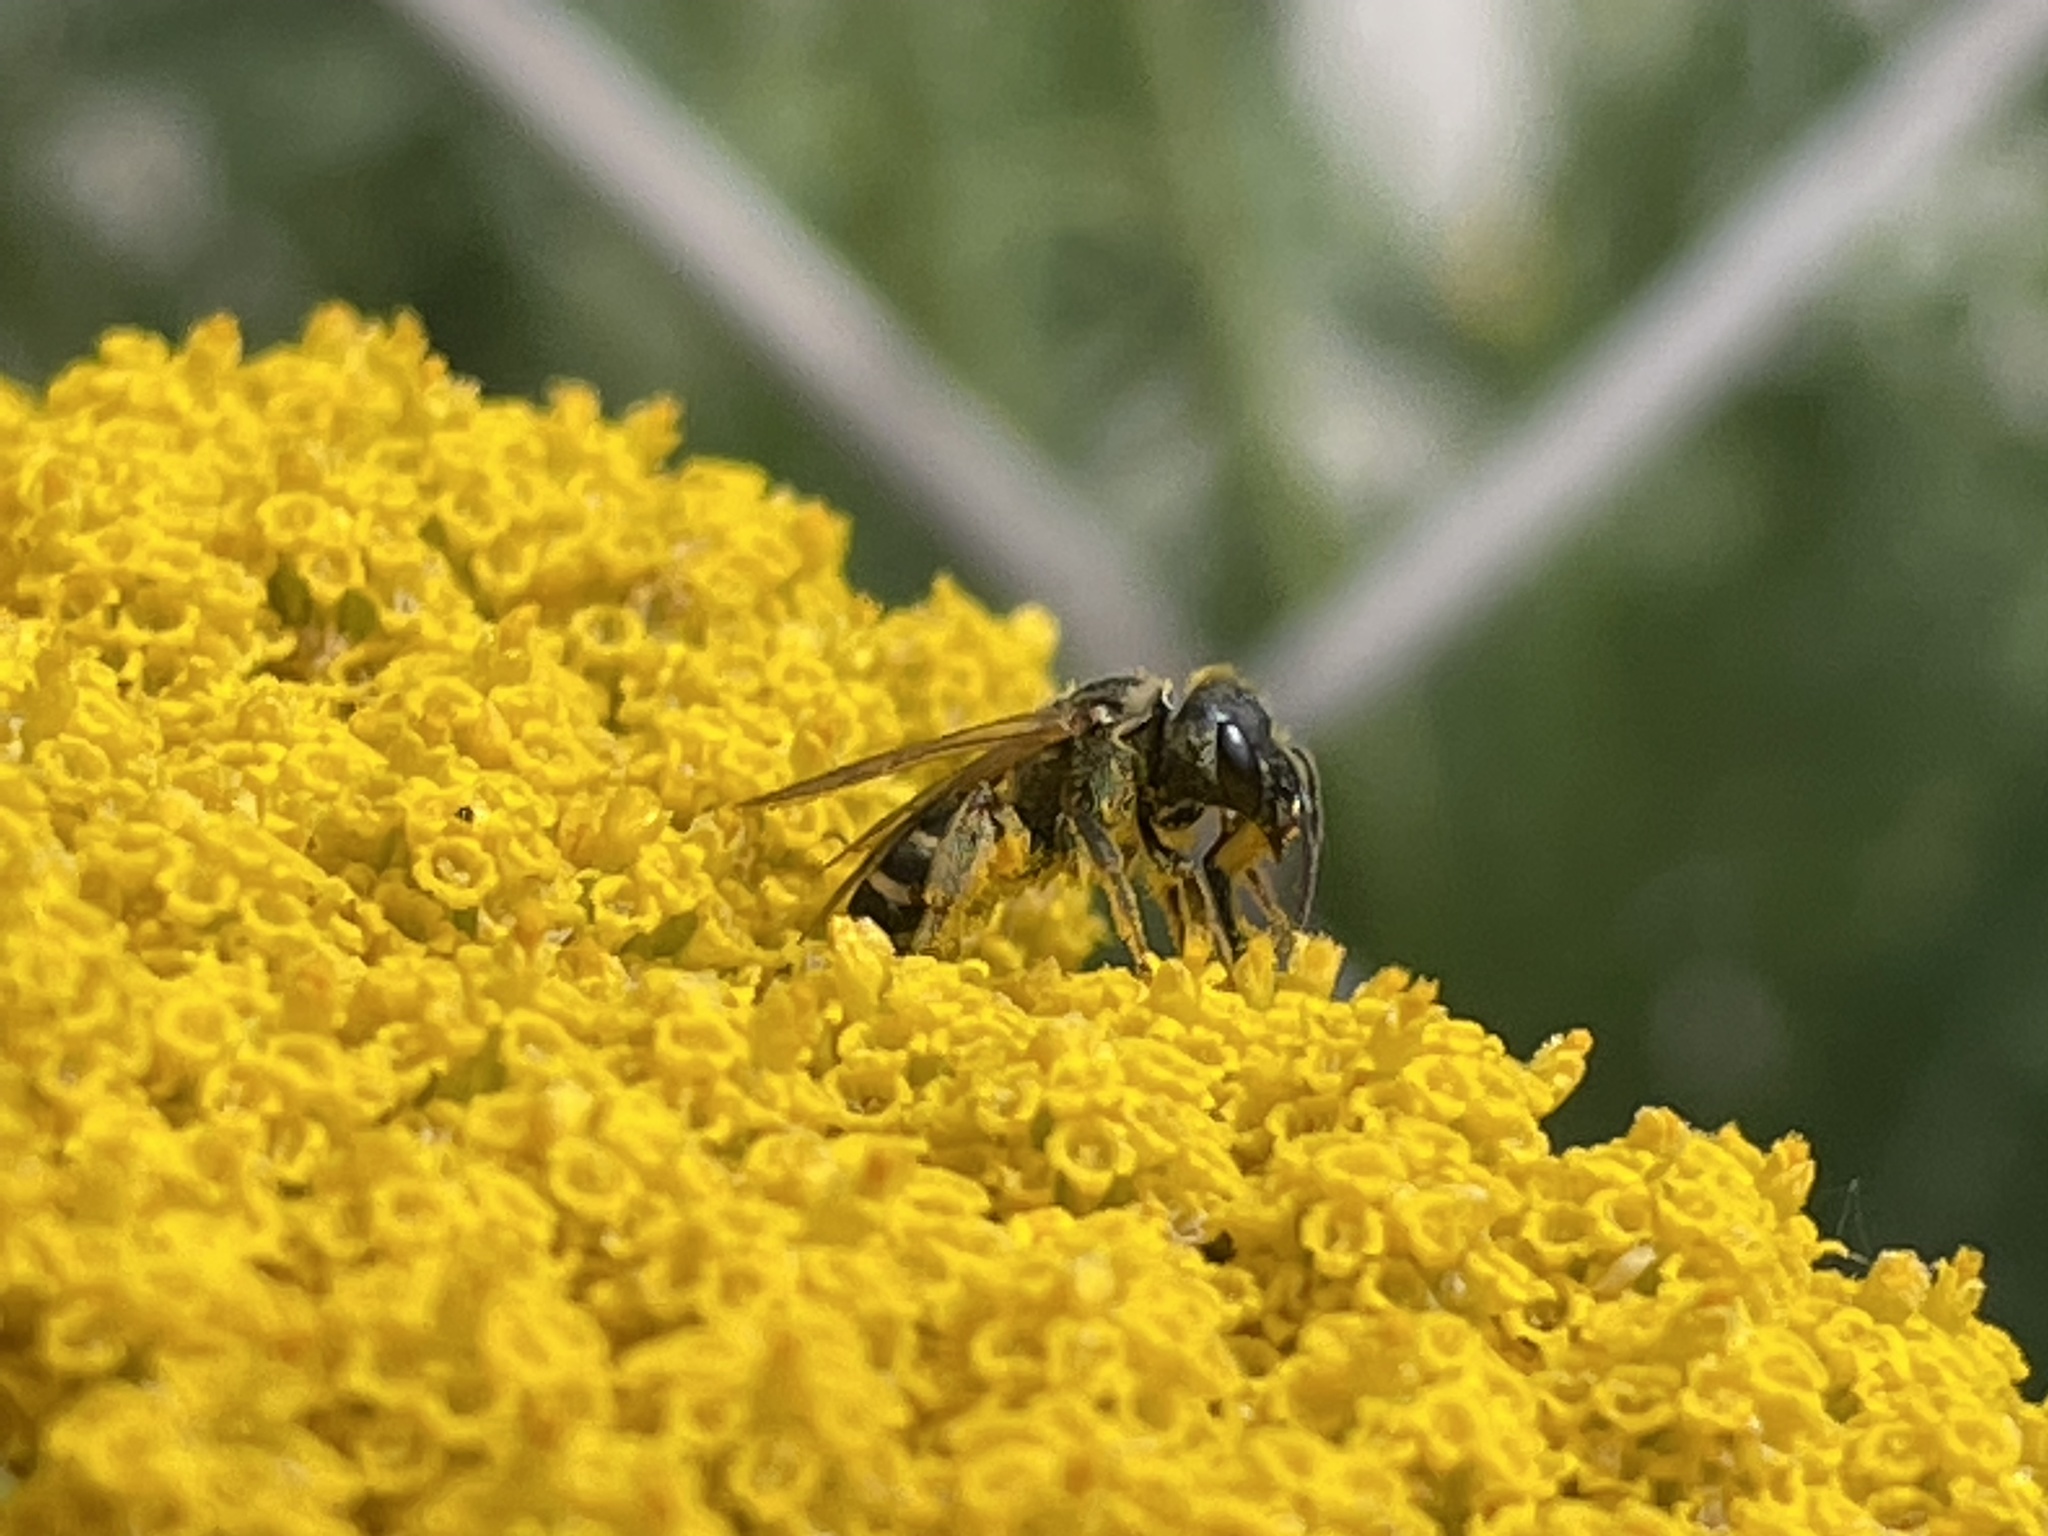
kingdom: Animalia
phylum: Arthropoda
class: Insecta
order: Hymenoptera
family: Halictidae
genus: Halictus
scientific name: Halictus ligatus
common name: Ligated furrow bee
